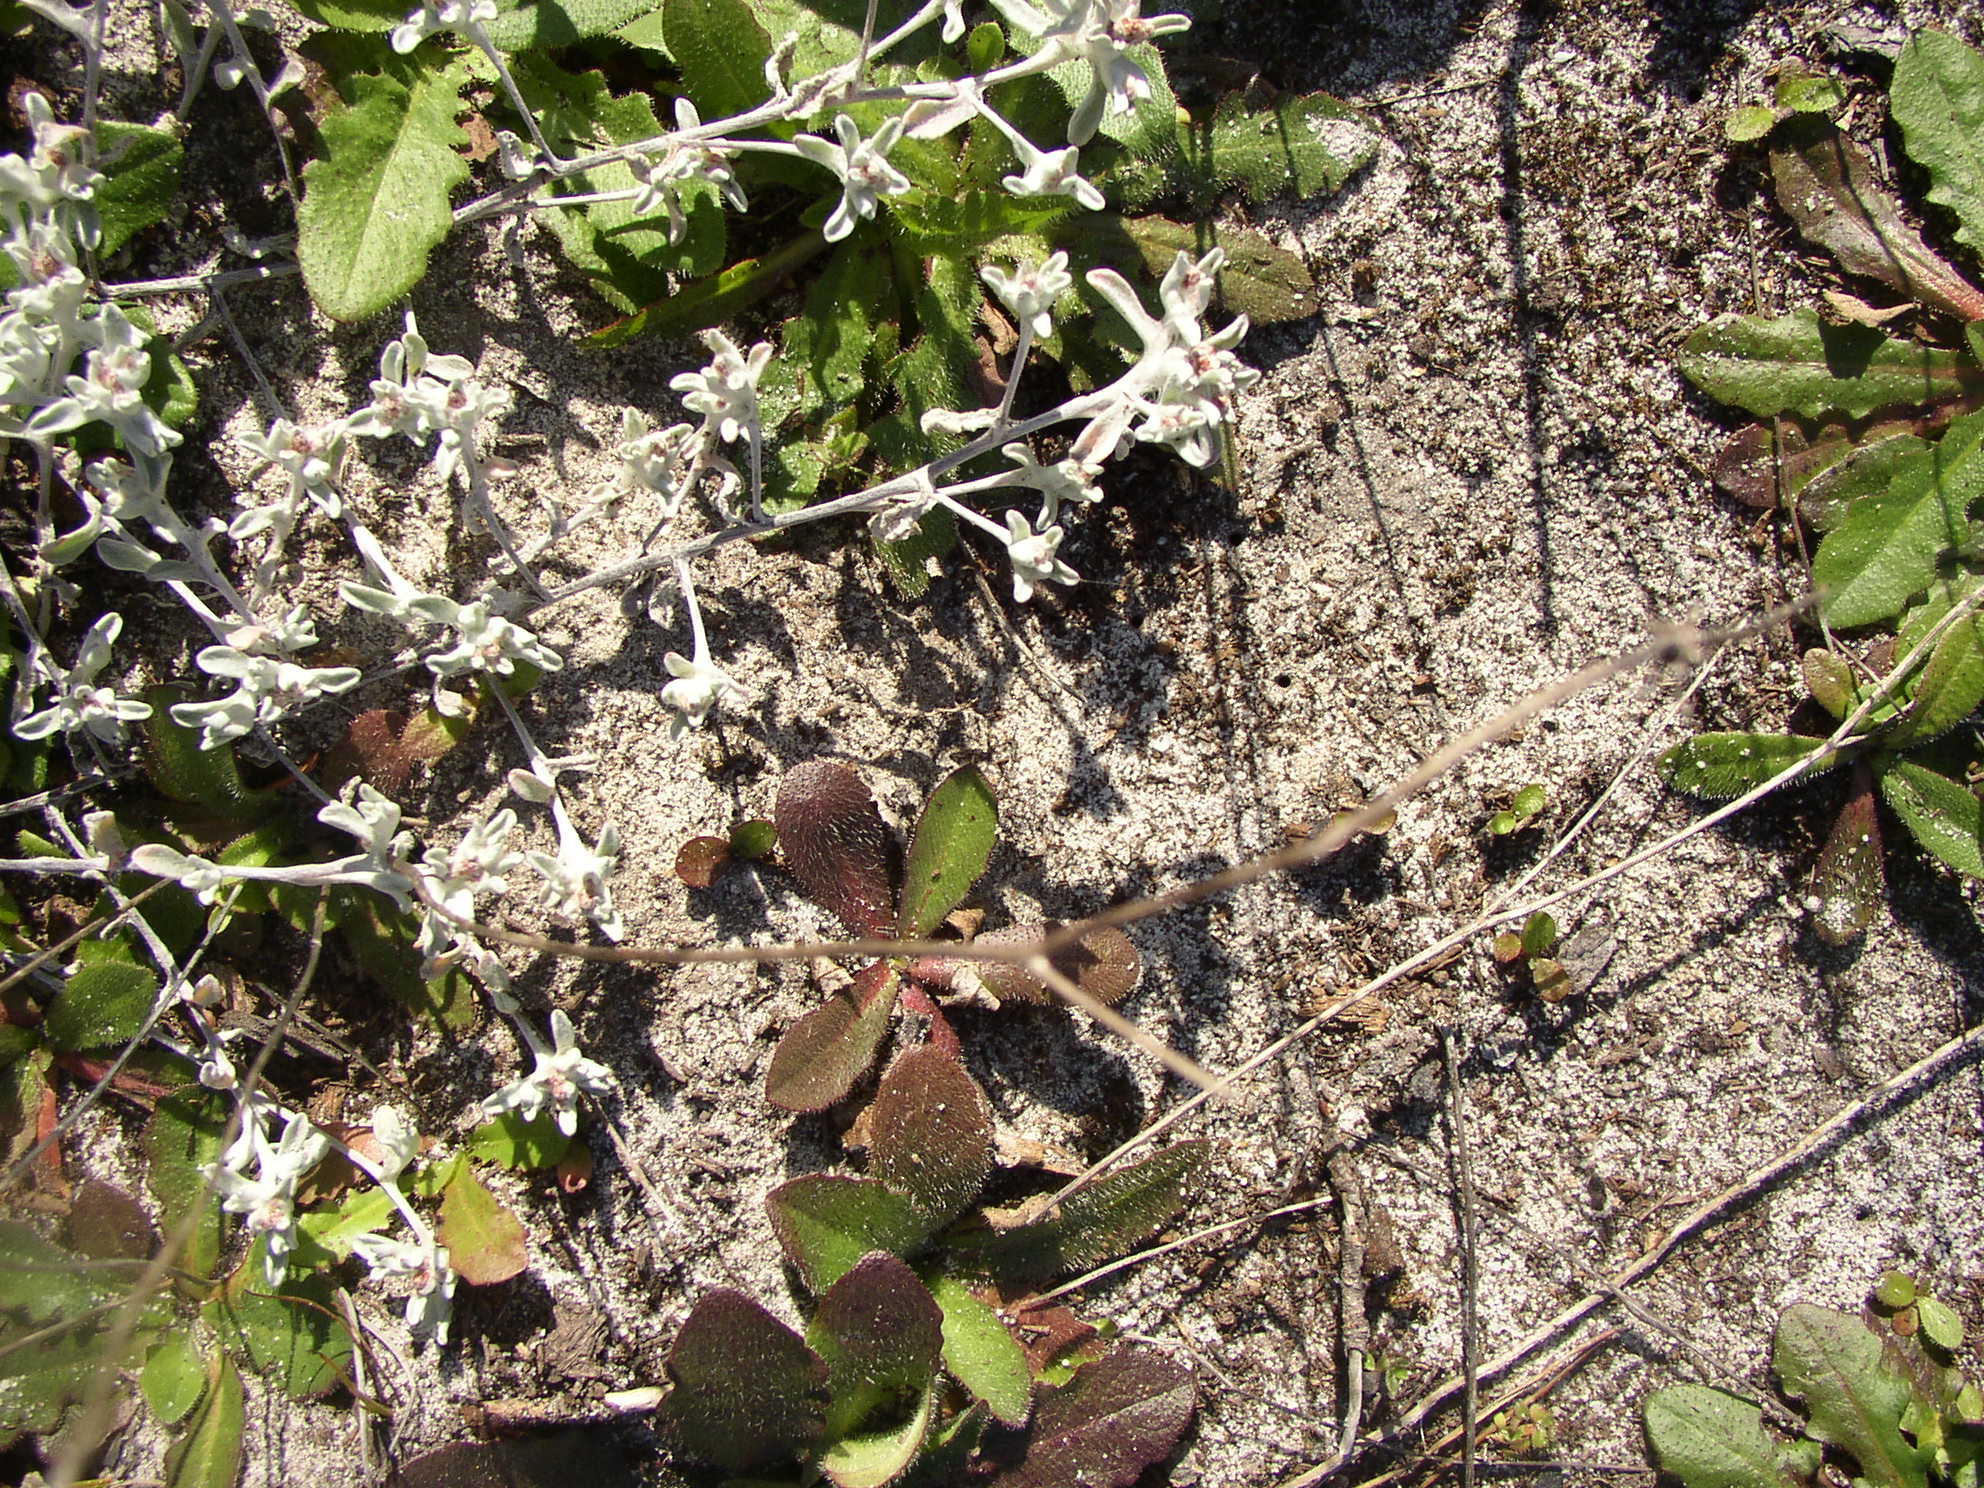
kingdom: Plantae
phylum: Tracheophyta
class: Magnoliopsida
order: Asterales
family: Asteraceae
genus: Helichrysum
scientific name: Helichrysum litorale
